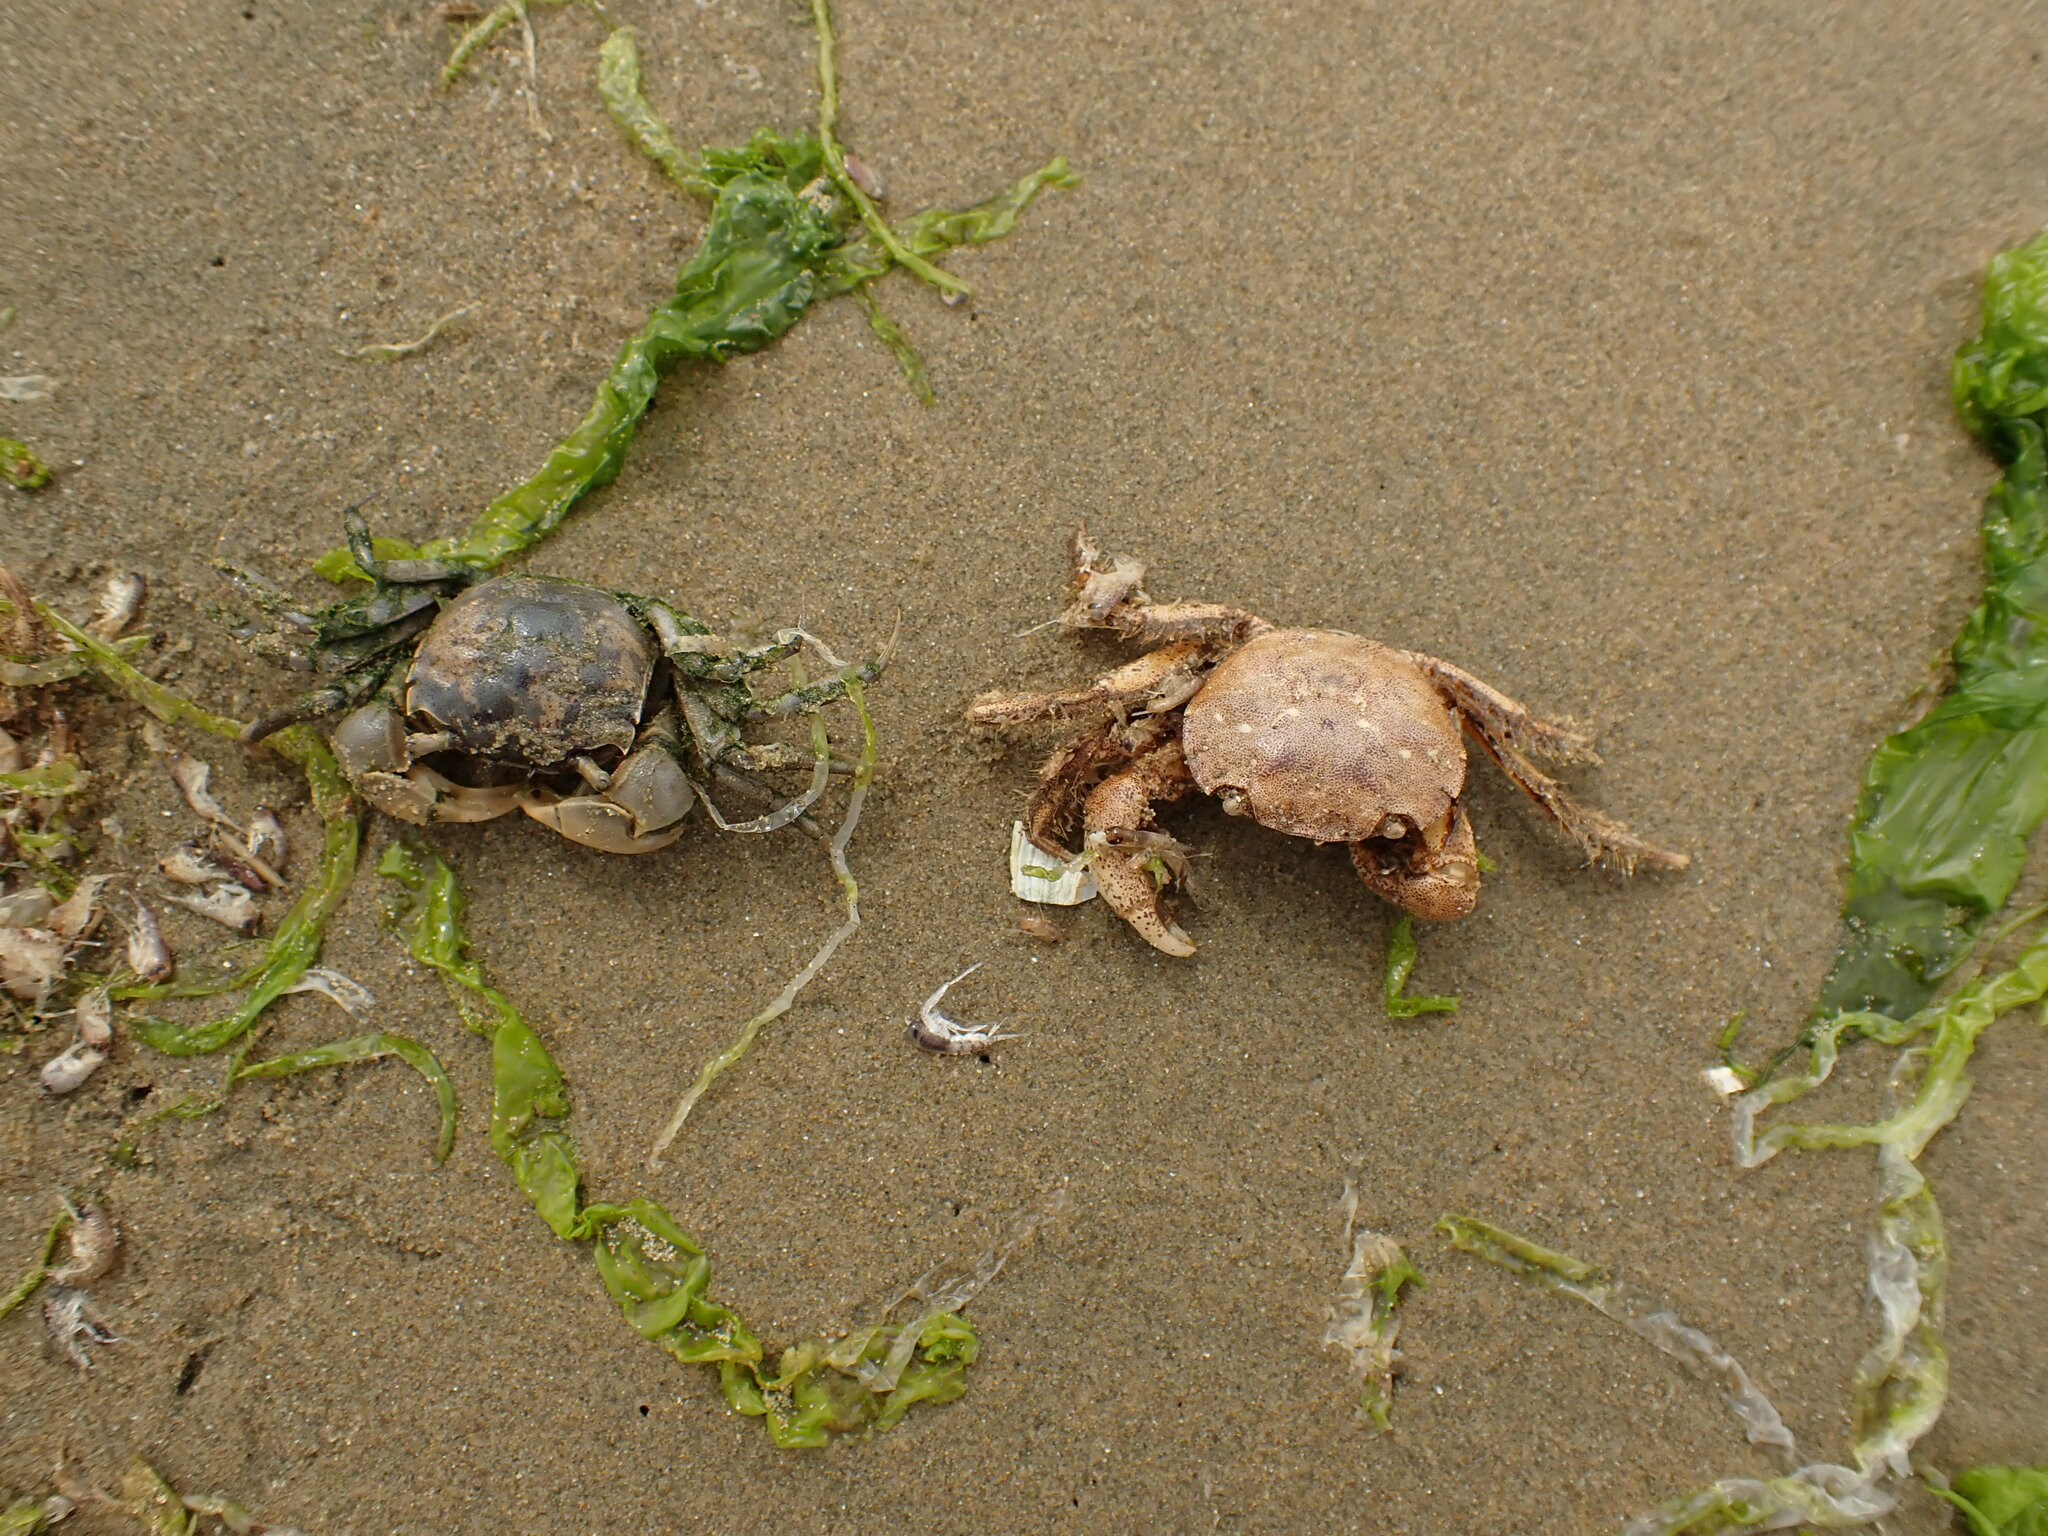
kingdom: Animalia
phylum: Arthropoda
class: Malacostraca
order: Decapoda
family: Varunidae
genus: Austrohelice
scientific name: Austrohelice crassa
